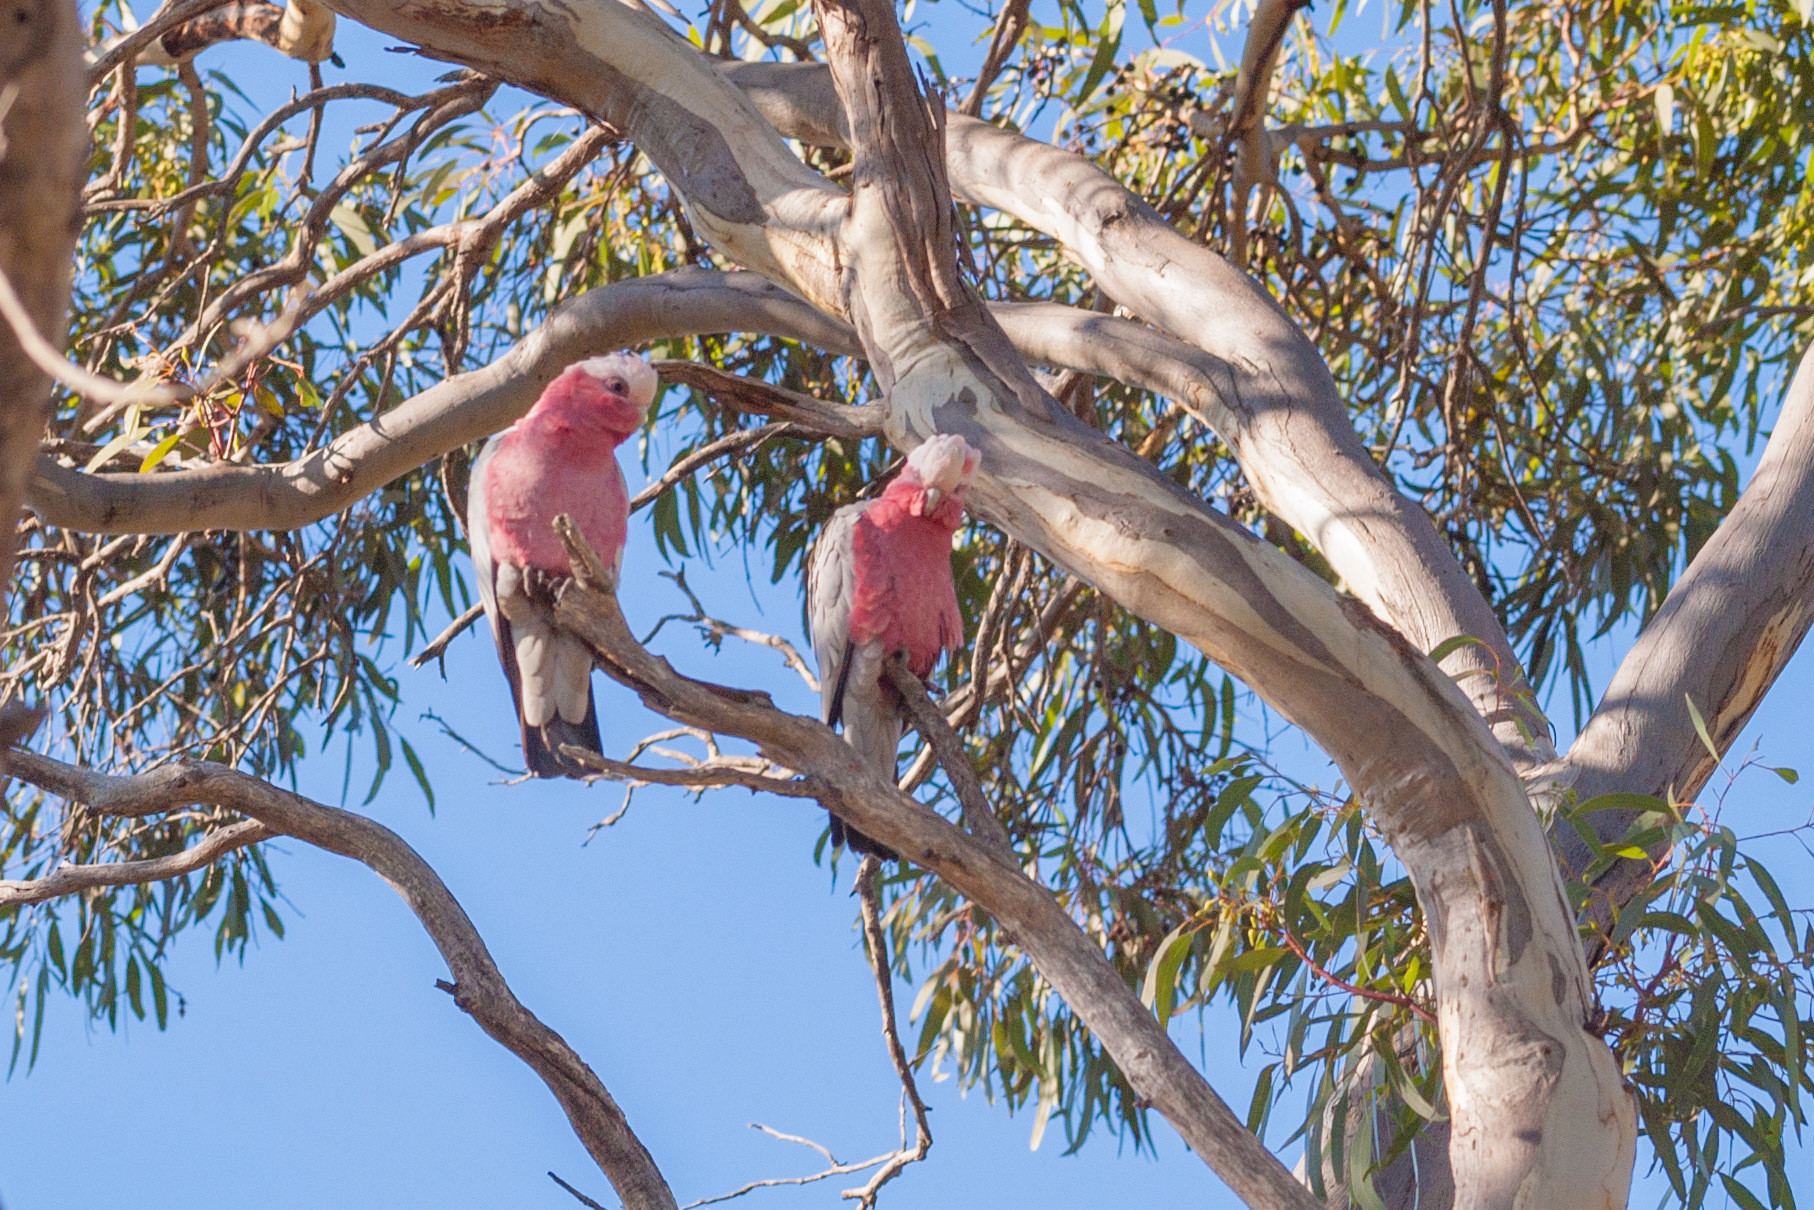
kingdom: Animalia
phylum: Chordata
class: Aves
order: Psittaciformes
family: Psittacidae
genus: Eolophus
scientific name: Eolophus roseicapilla
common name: Galah
